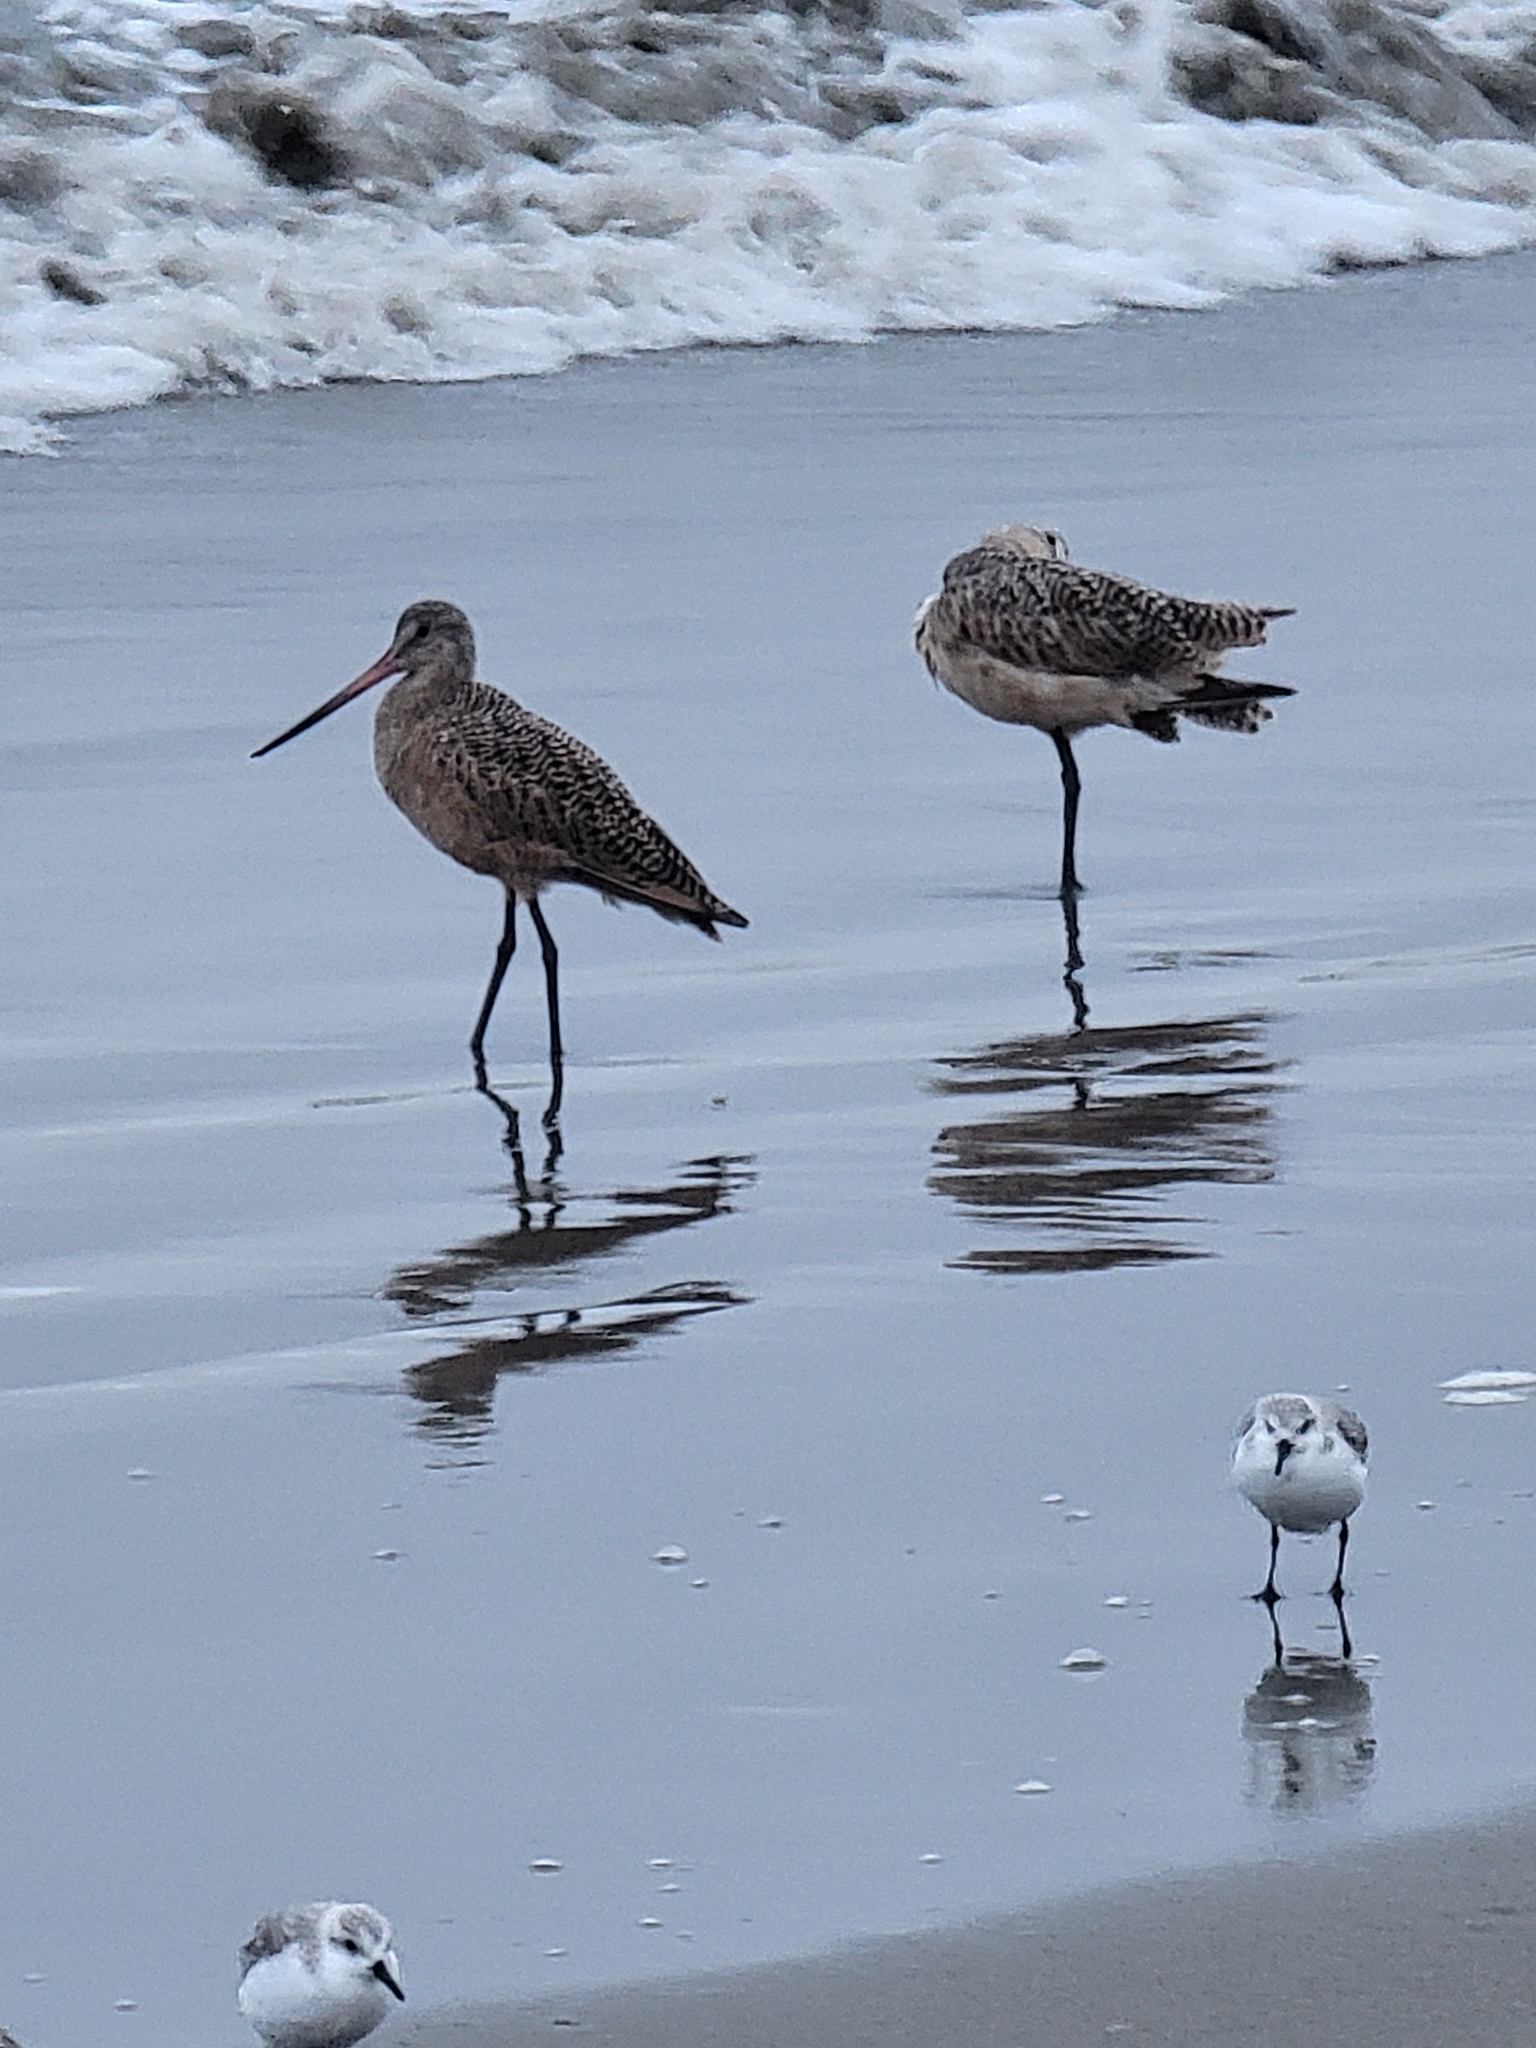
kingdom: Animalia
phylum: Chordata
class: Aves
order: Charadriiformes
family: Scolopacidae
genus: Limosa
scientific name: Limosa fedoa
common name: Marbled godwit
